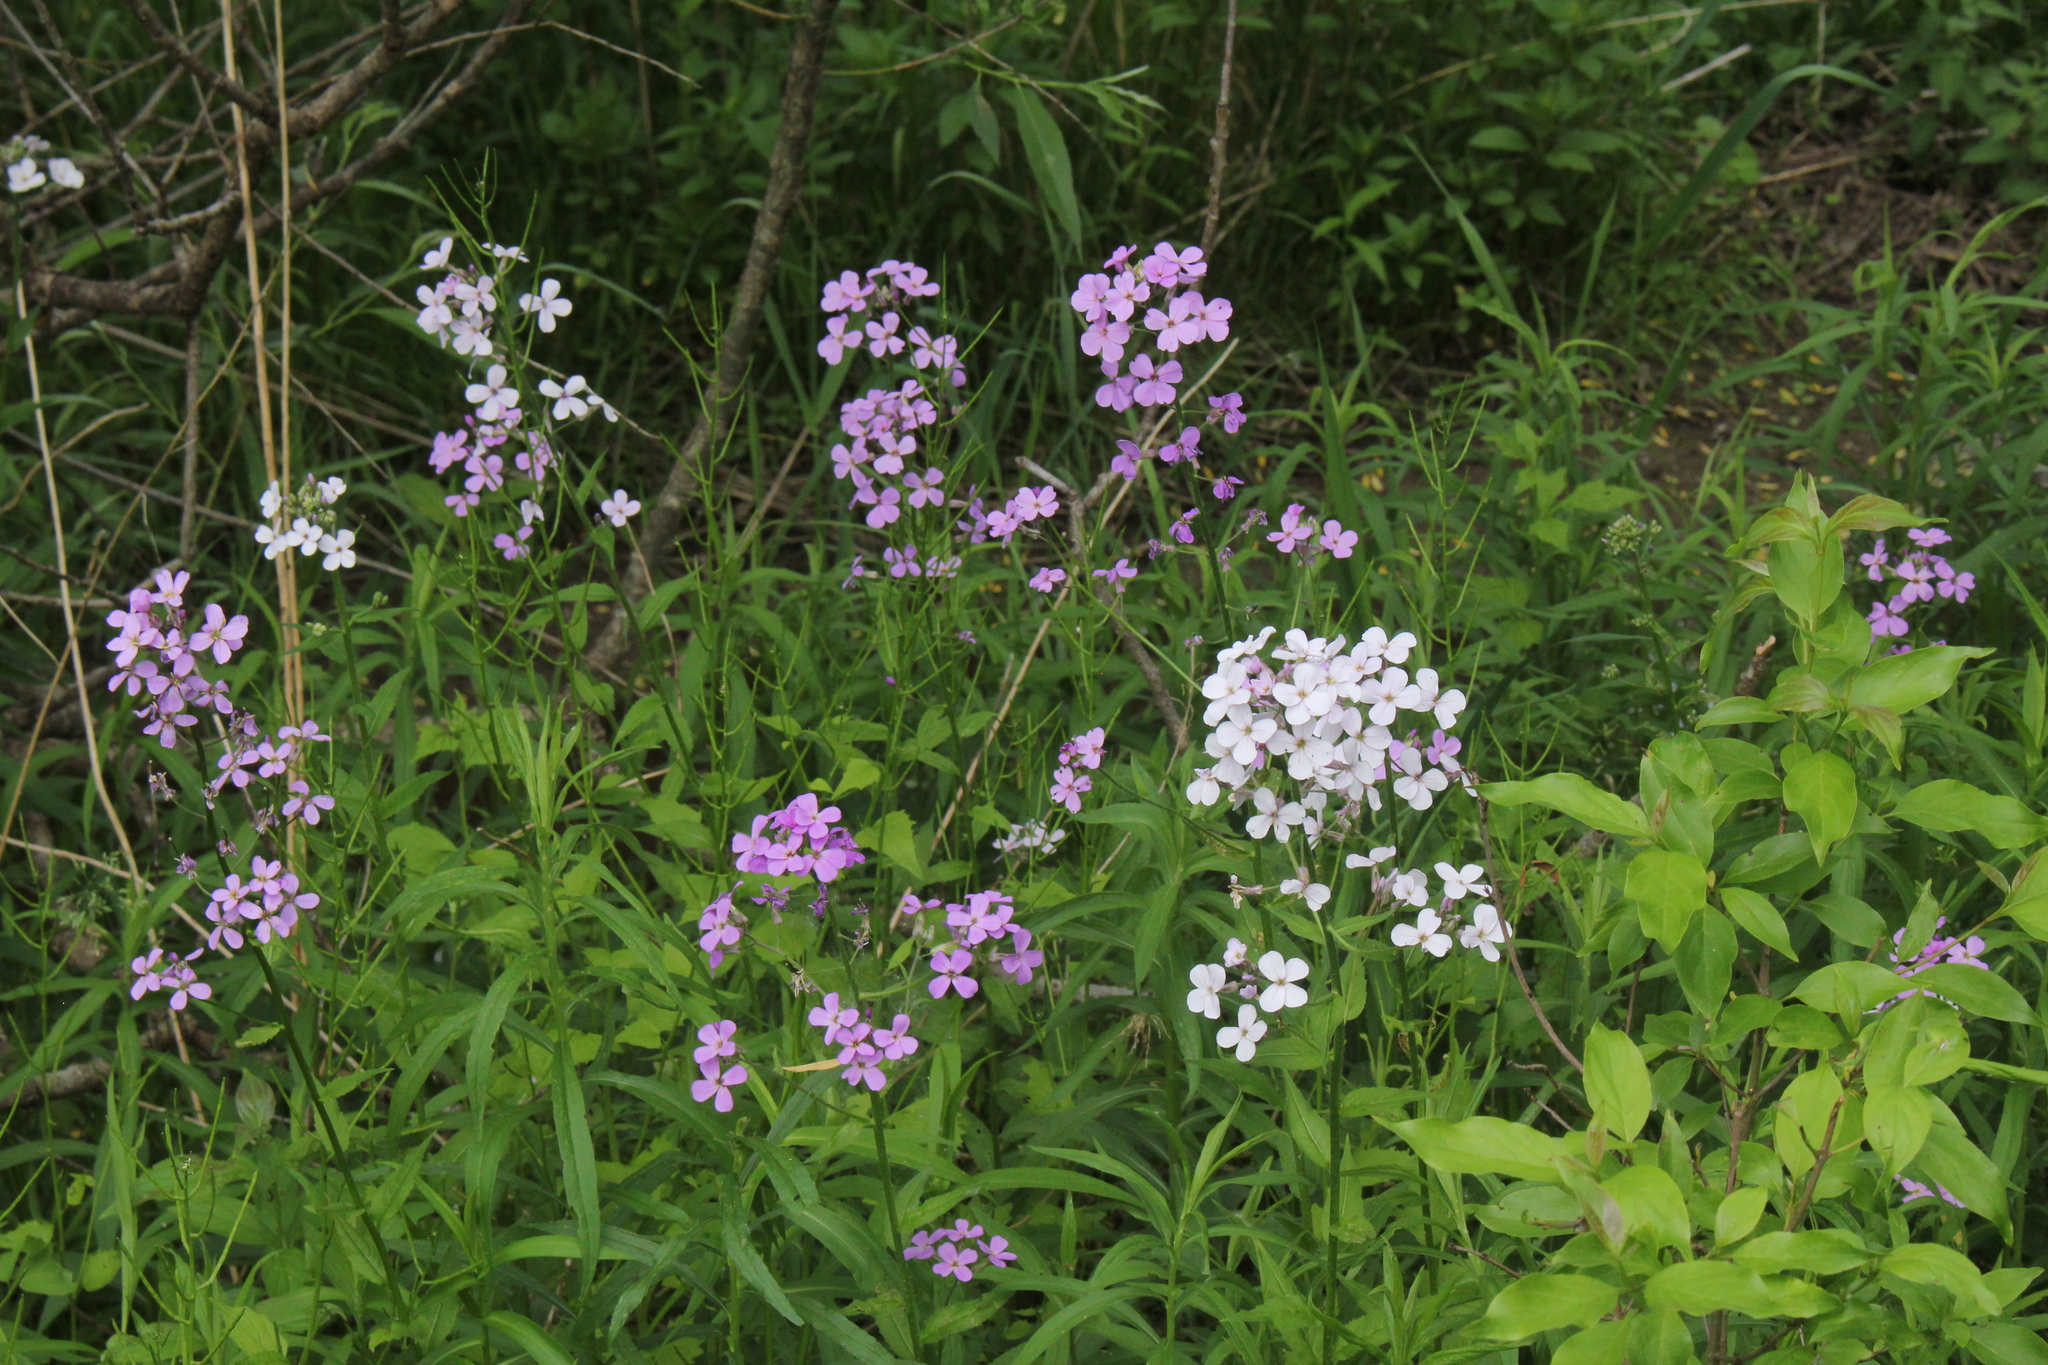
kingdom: Plantae
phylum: Tracheophyta
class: Magnoliopsida
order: Brassicales
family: Brassicaceae
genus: Hesperis
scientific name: Hesperis matronalis
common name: Dame's-violet
